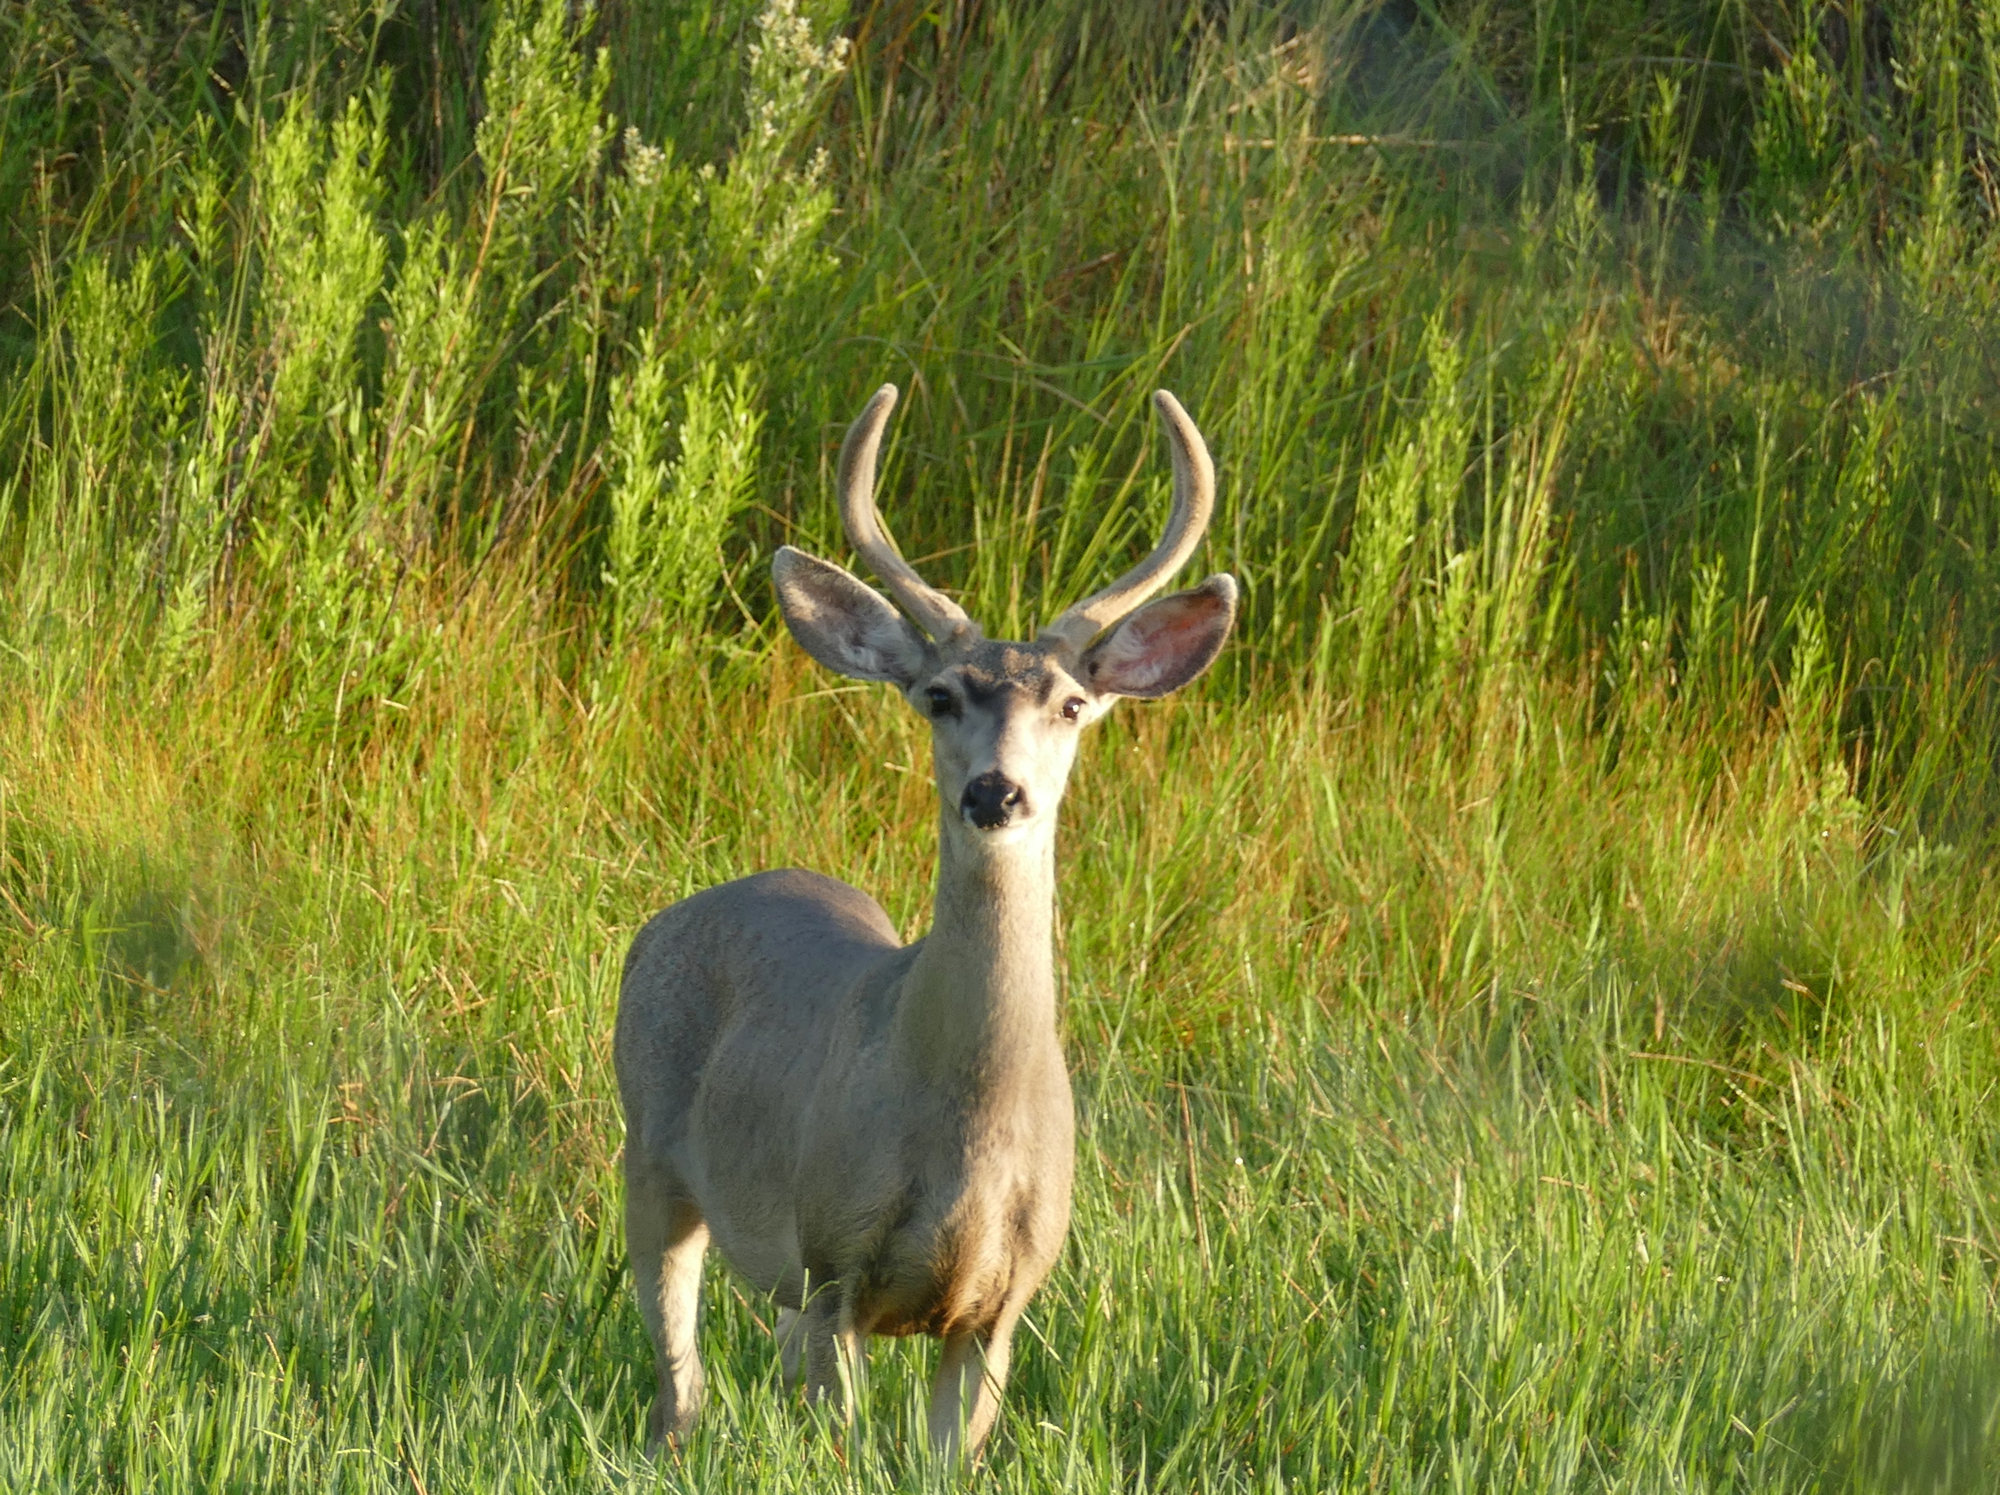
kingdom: Animalia
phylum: Chordata
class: Mammalia
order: Artiodactyla
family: Cervidae
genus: Odocoileus
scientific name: Odocoileus hemionus
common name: Mule deer
